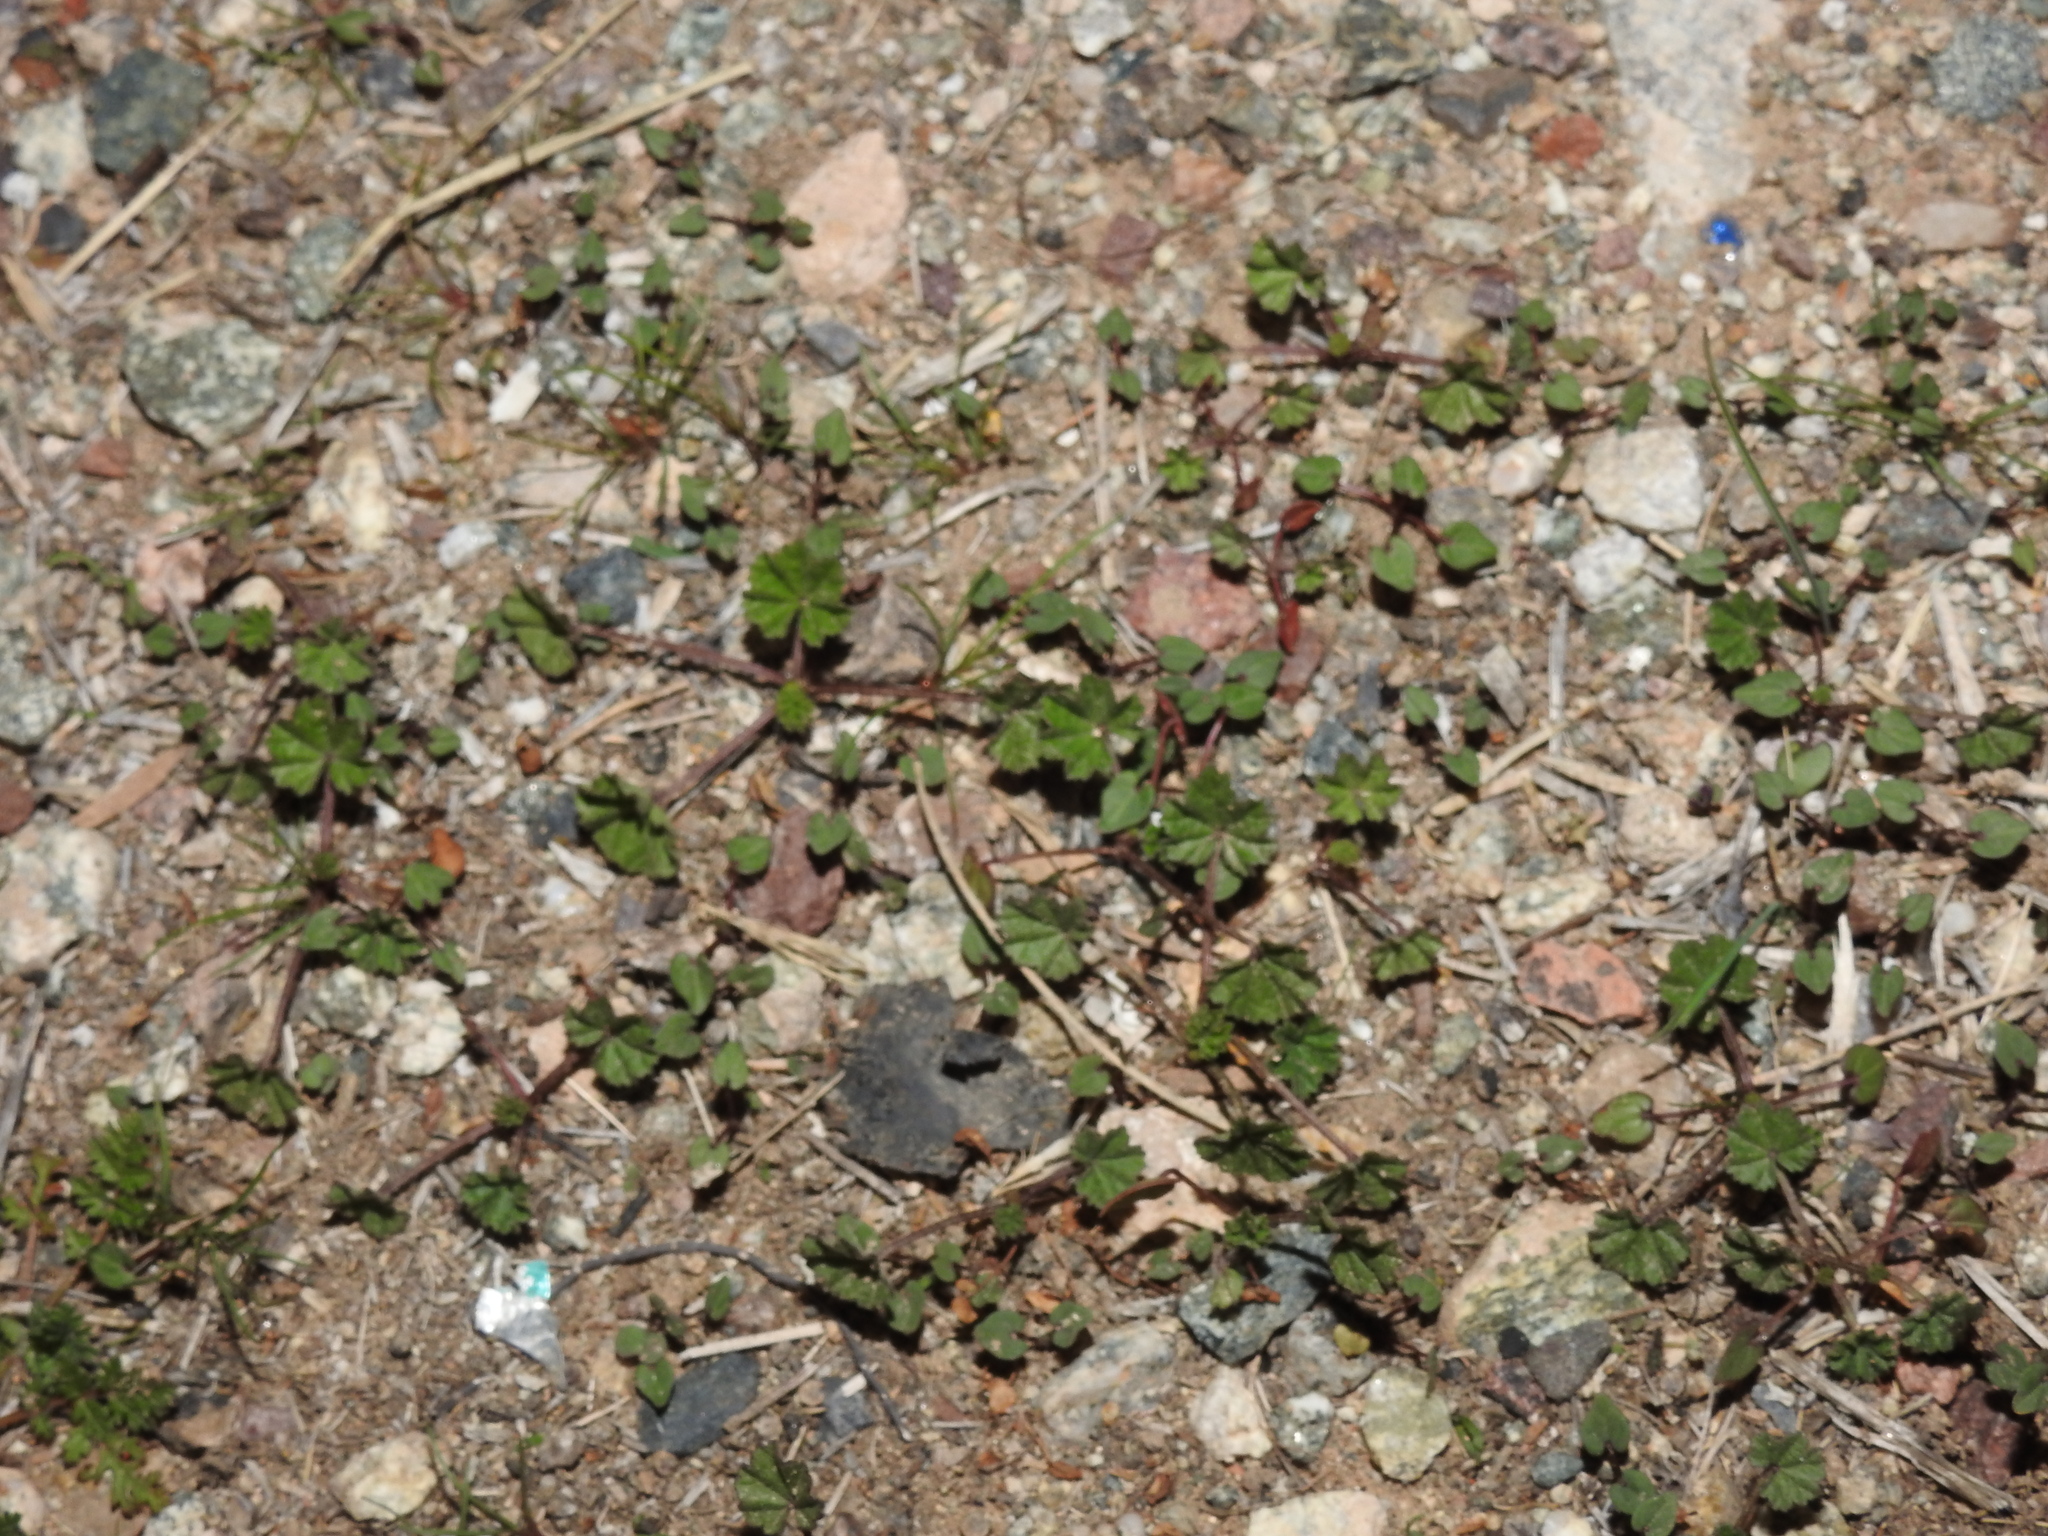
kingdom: Plantae
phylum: Tracheophyta
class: Magnoliopsida
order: Malvales
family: Malvaceae
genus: Malva
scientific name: Malva parviflora
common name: Least mallow
